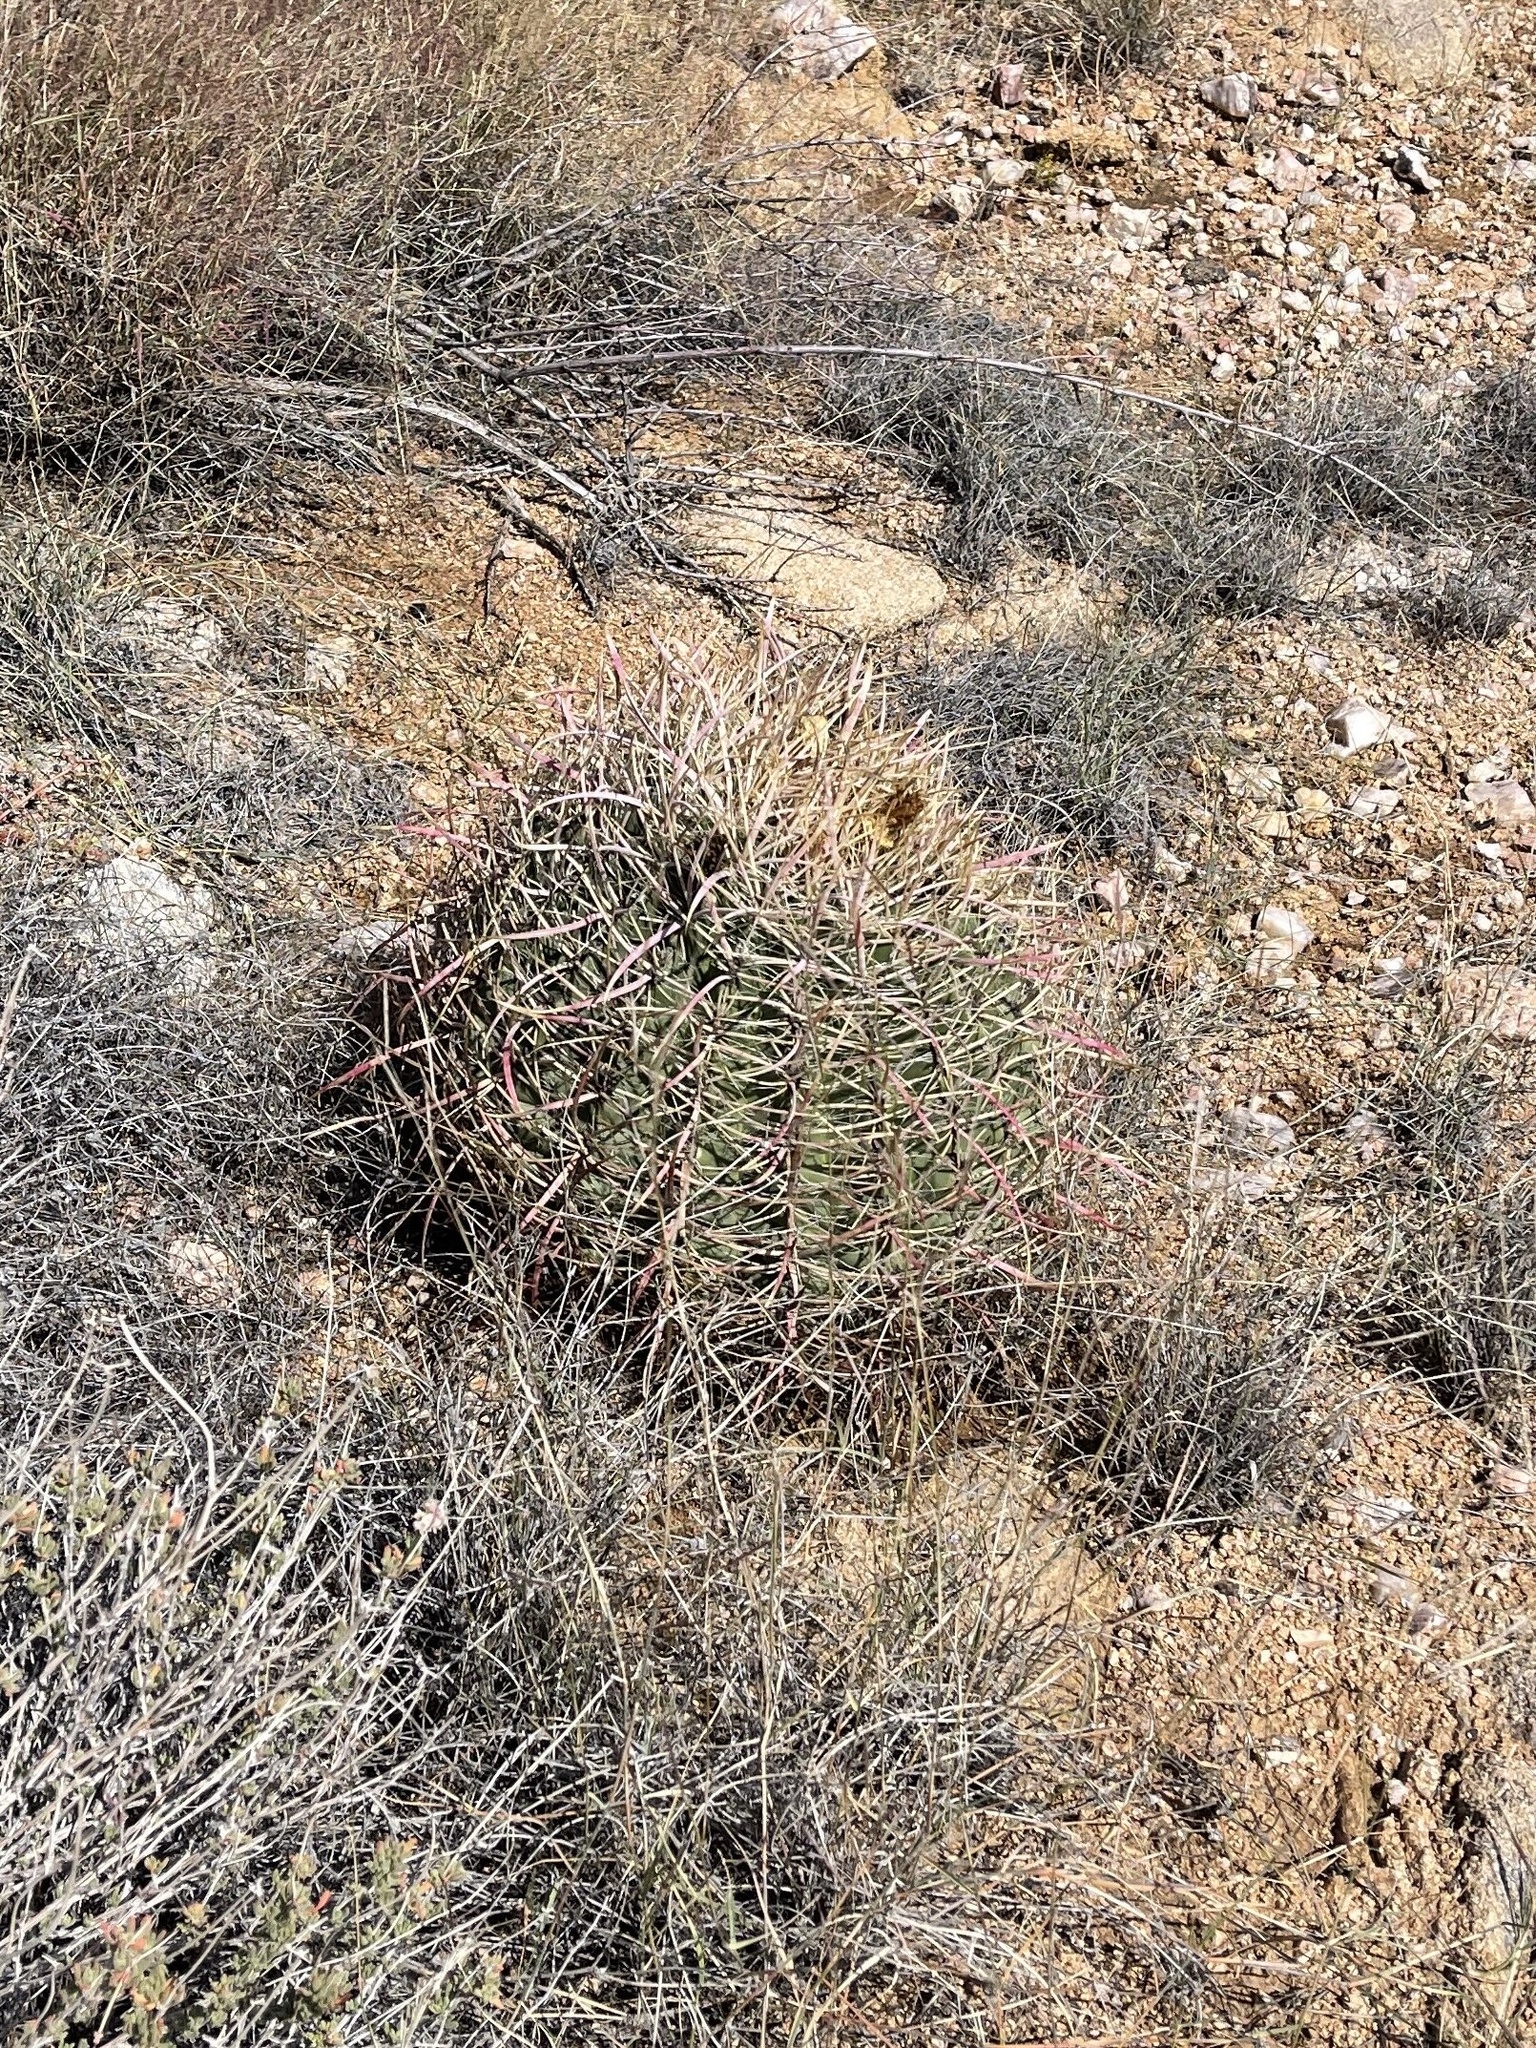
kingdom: Plantae
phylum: Tracheophyta
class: Magnoliopsida
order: Caryophyllales
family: Cactaceae
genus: Ferocactus
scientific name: Ferocactus cylindraceus
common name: California barrel cactus
